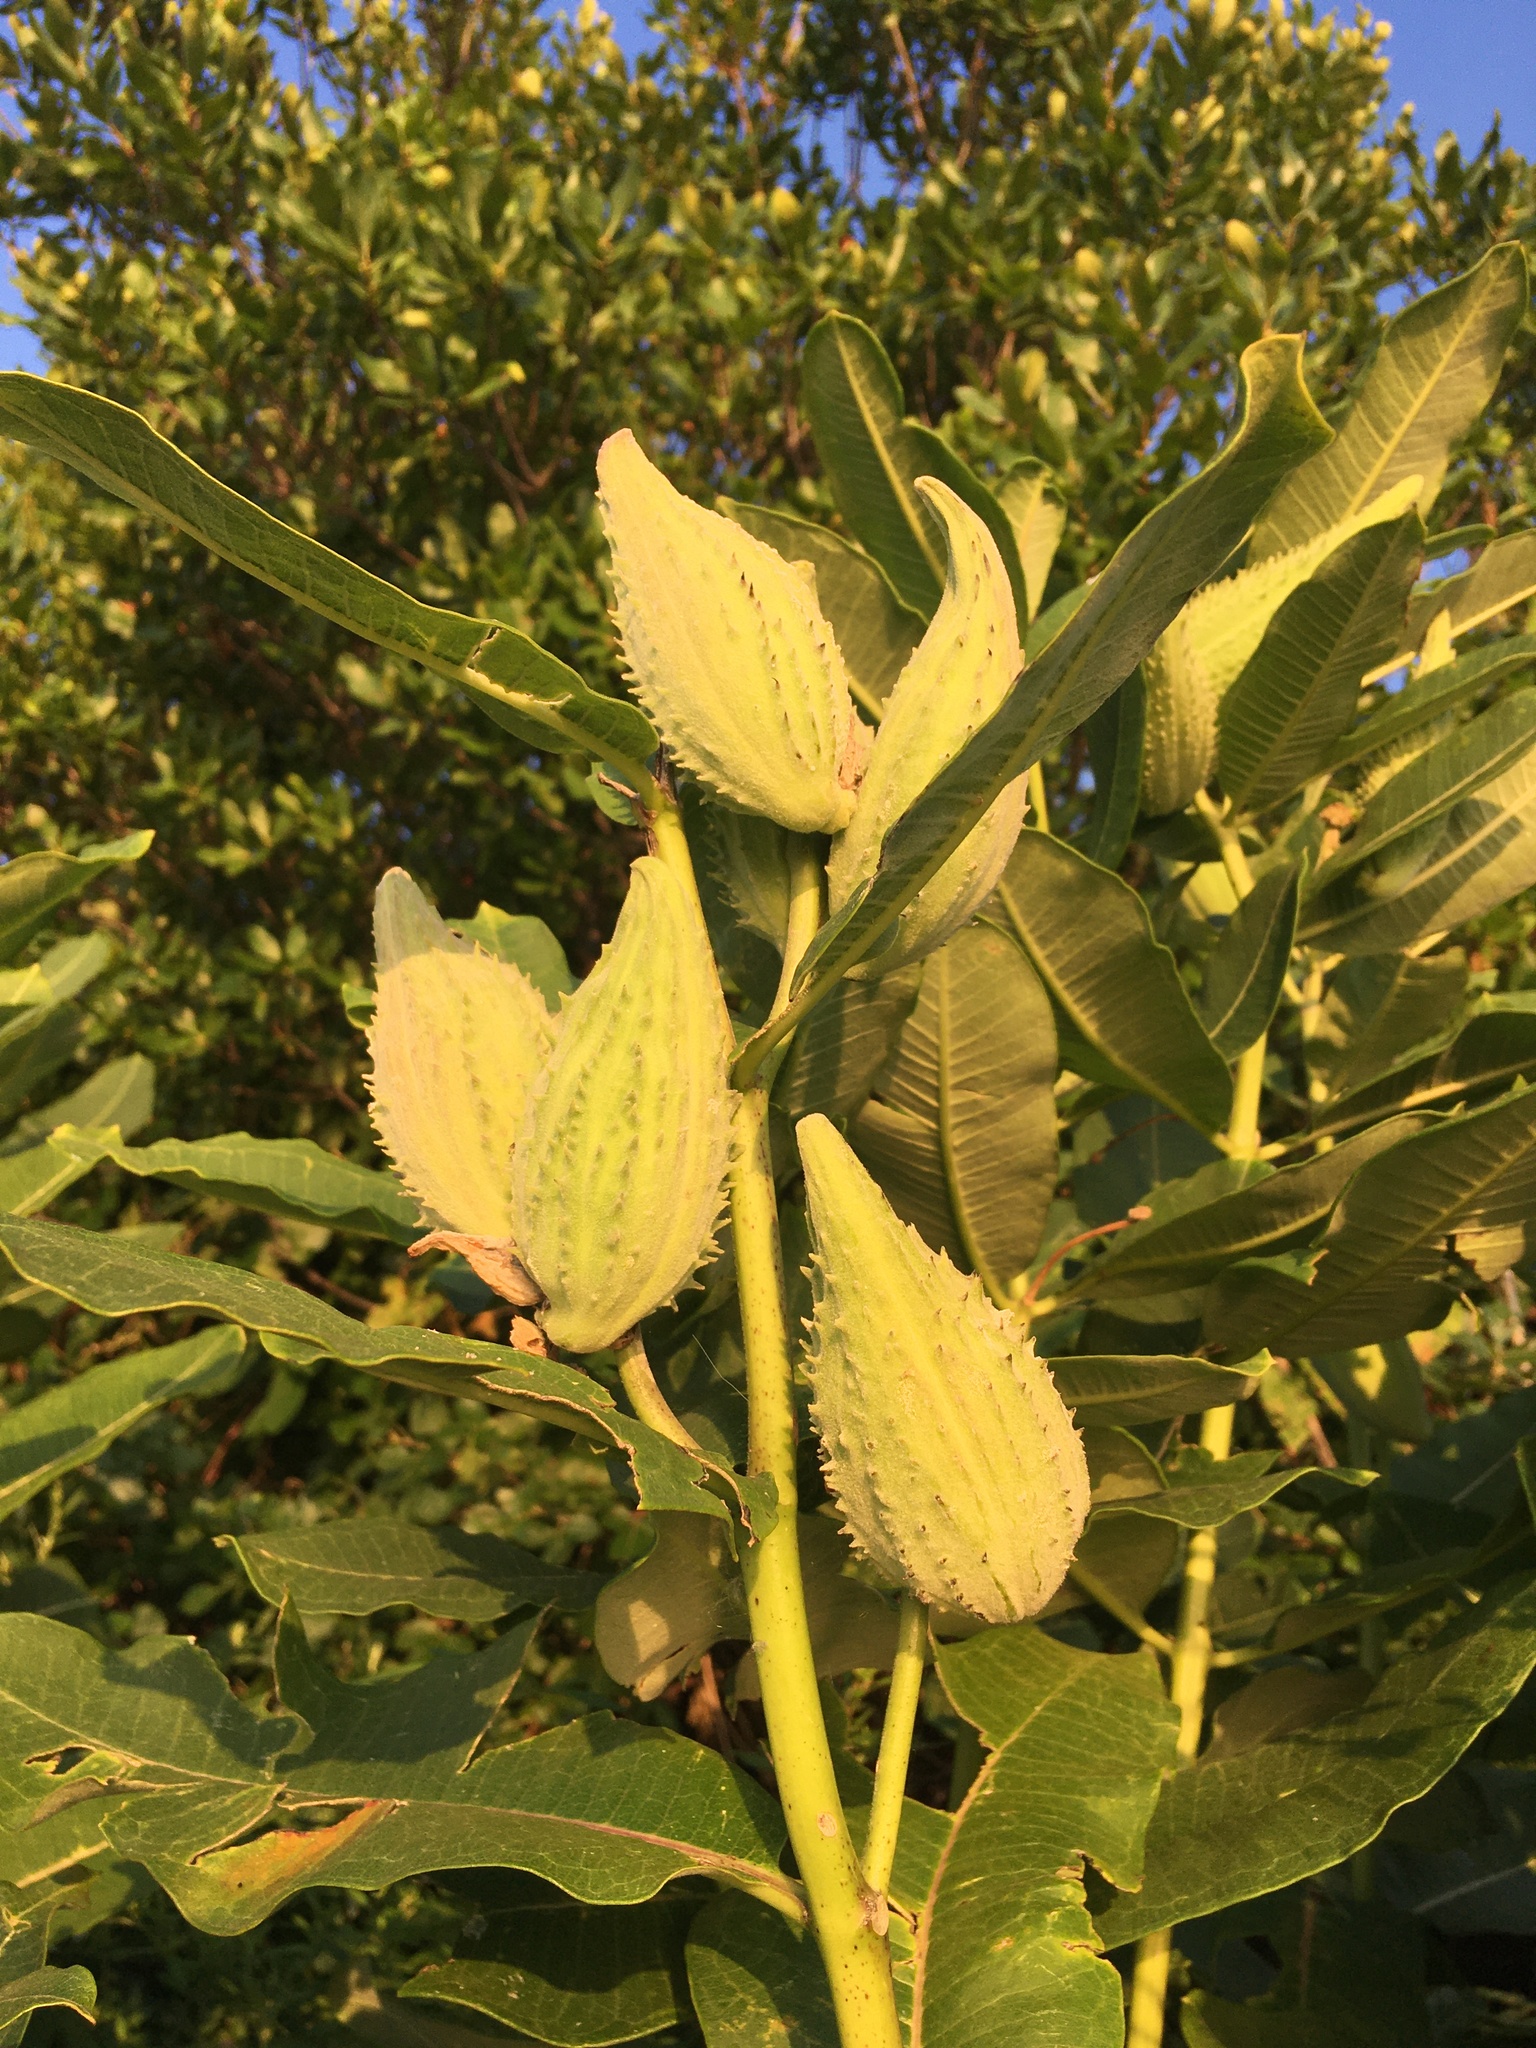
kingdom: Plantae
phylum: Tracheophyta
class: Magnoliopsida
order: Gentianales
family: Apocynaceae
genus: Asclepias
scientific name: Asclepias syriaca
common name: Common milkweed
